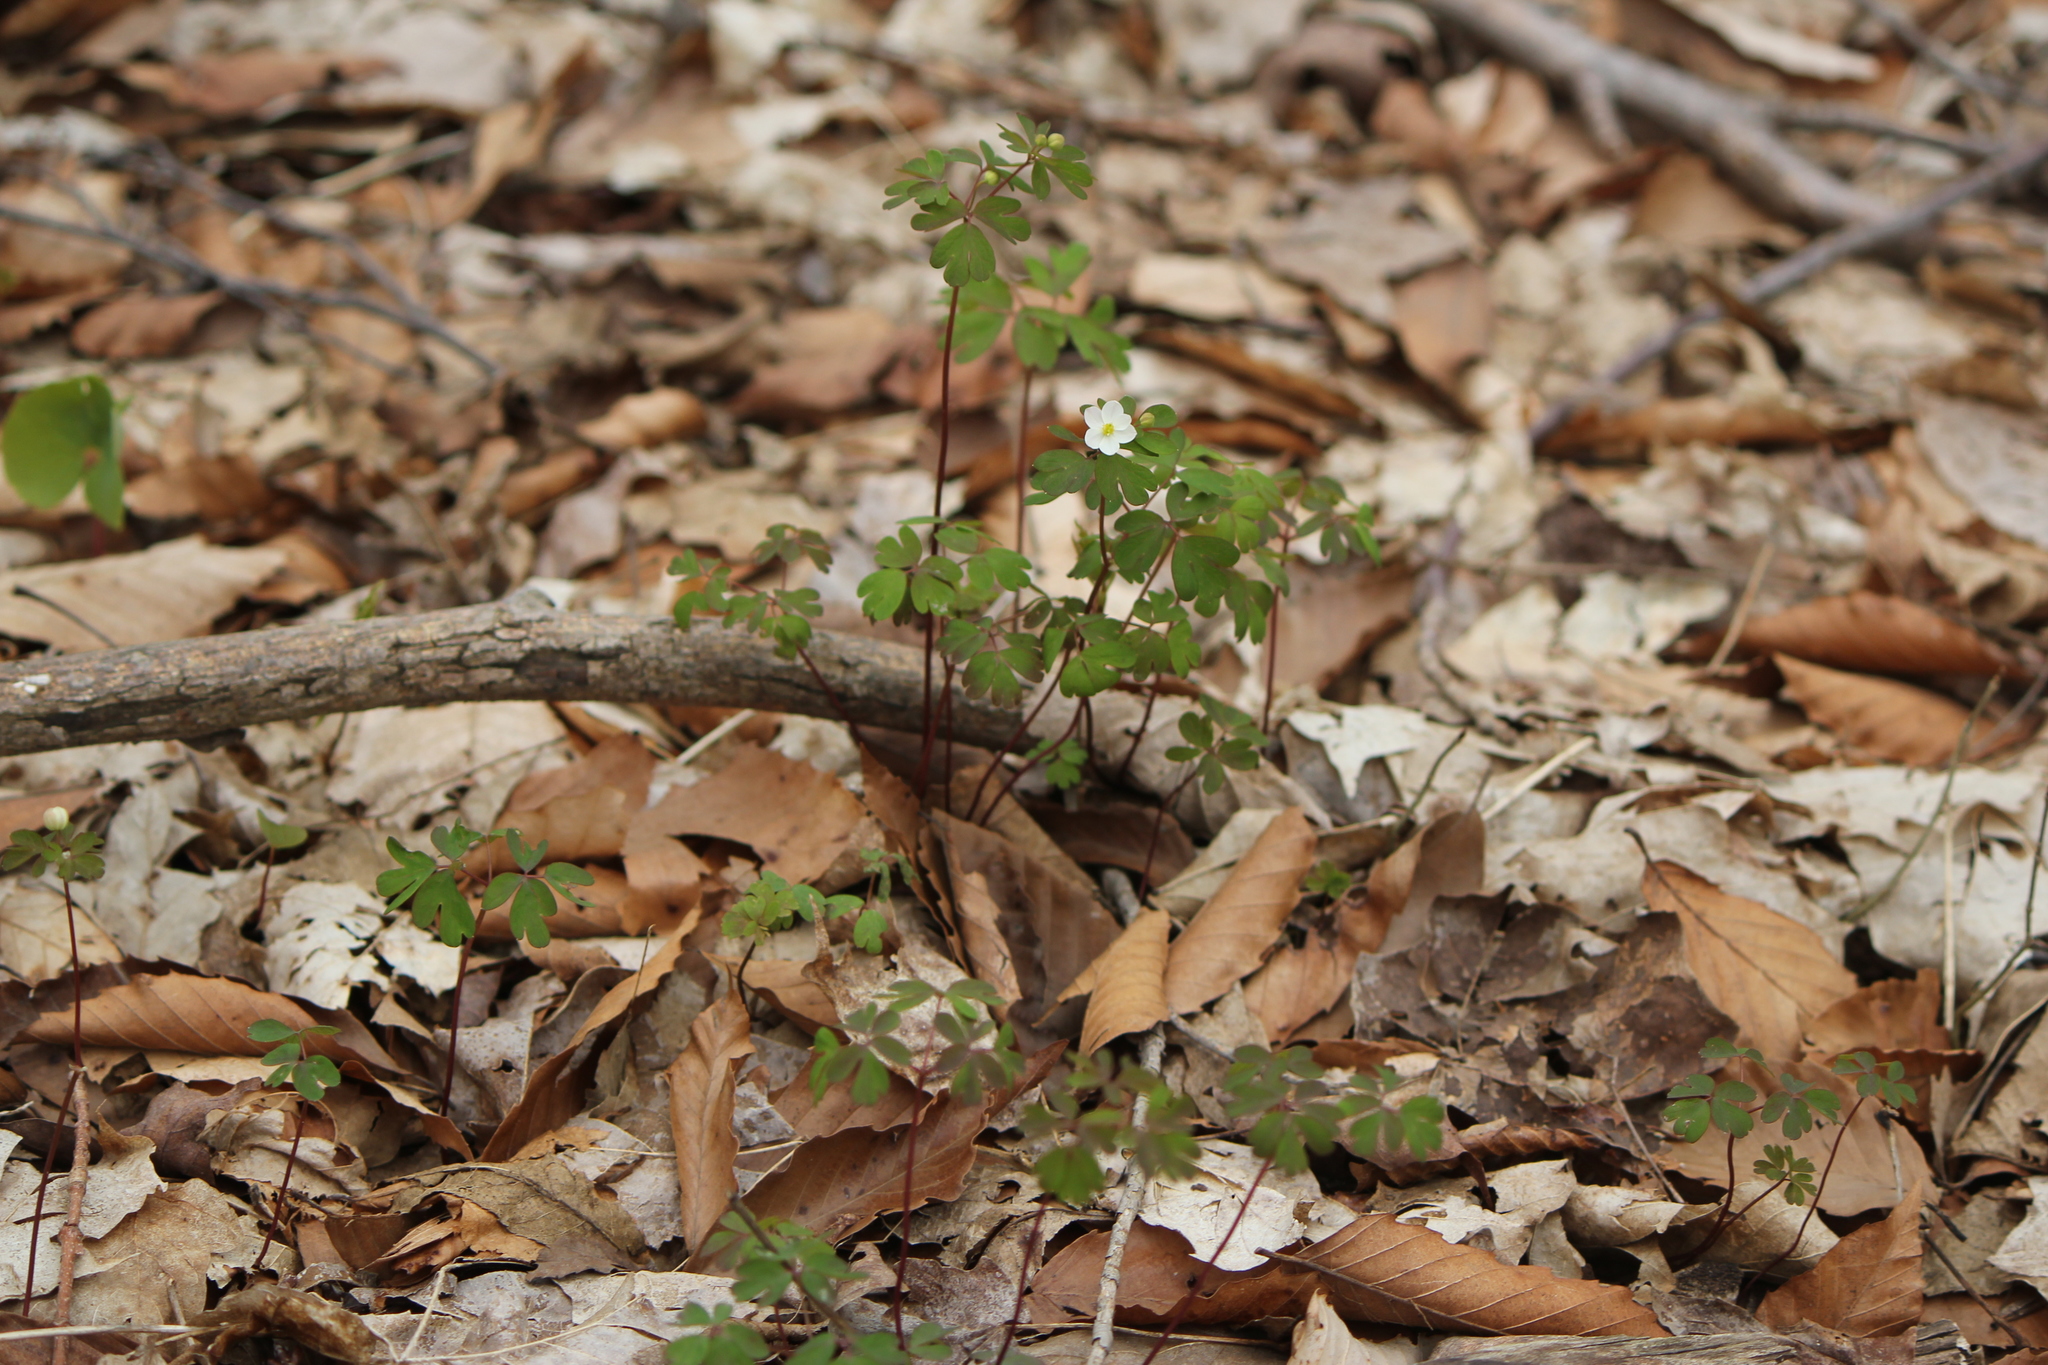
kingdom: Plantae
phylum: Tracheophyta
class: Magnoliopsida
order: Ranunculales
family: Ranunculaceae
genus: Enemion
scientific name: Enemion biternatum
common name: Eastern false rue-anemone
